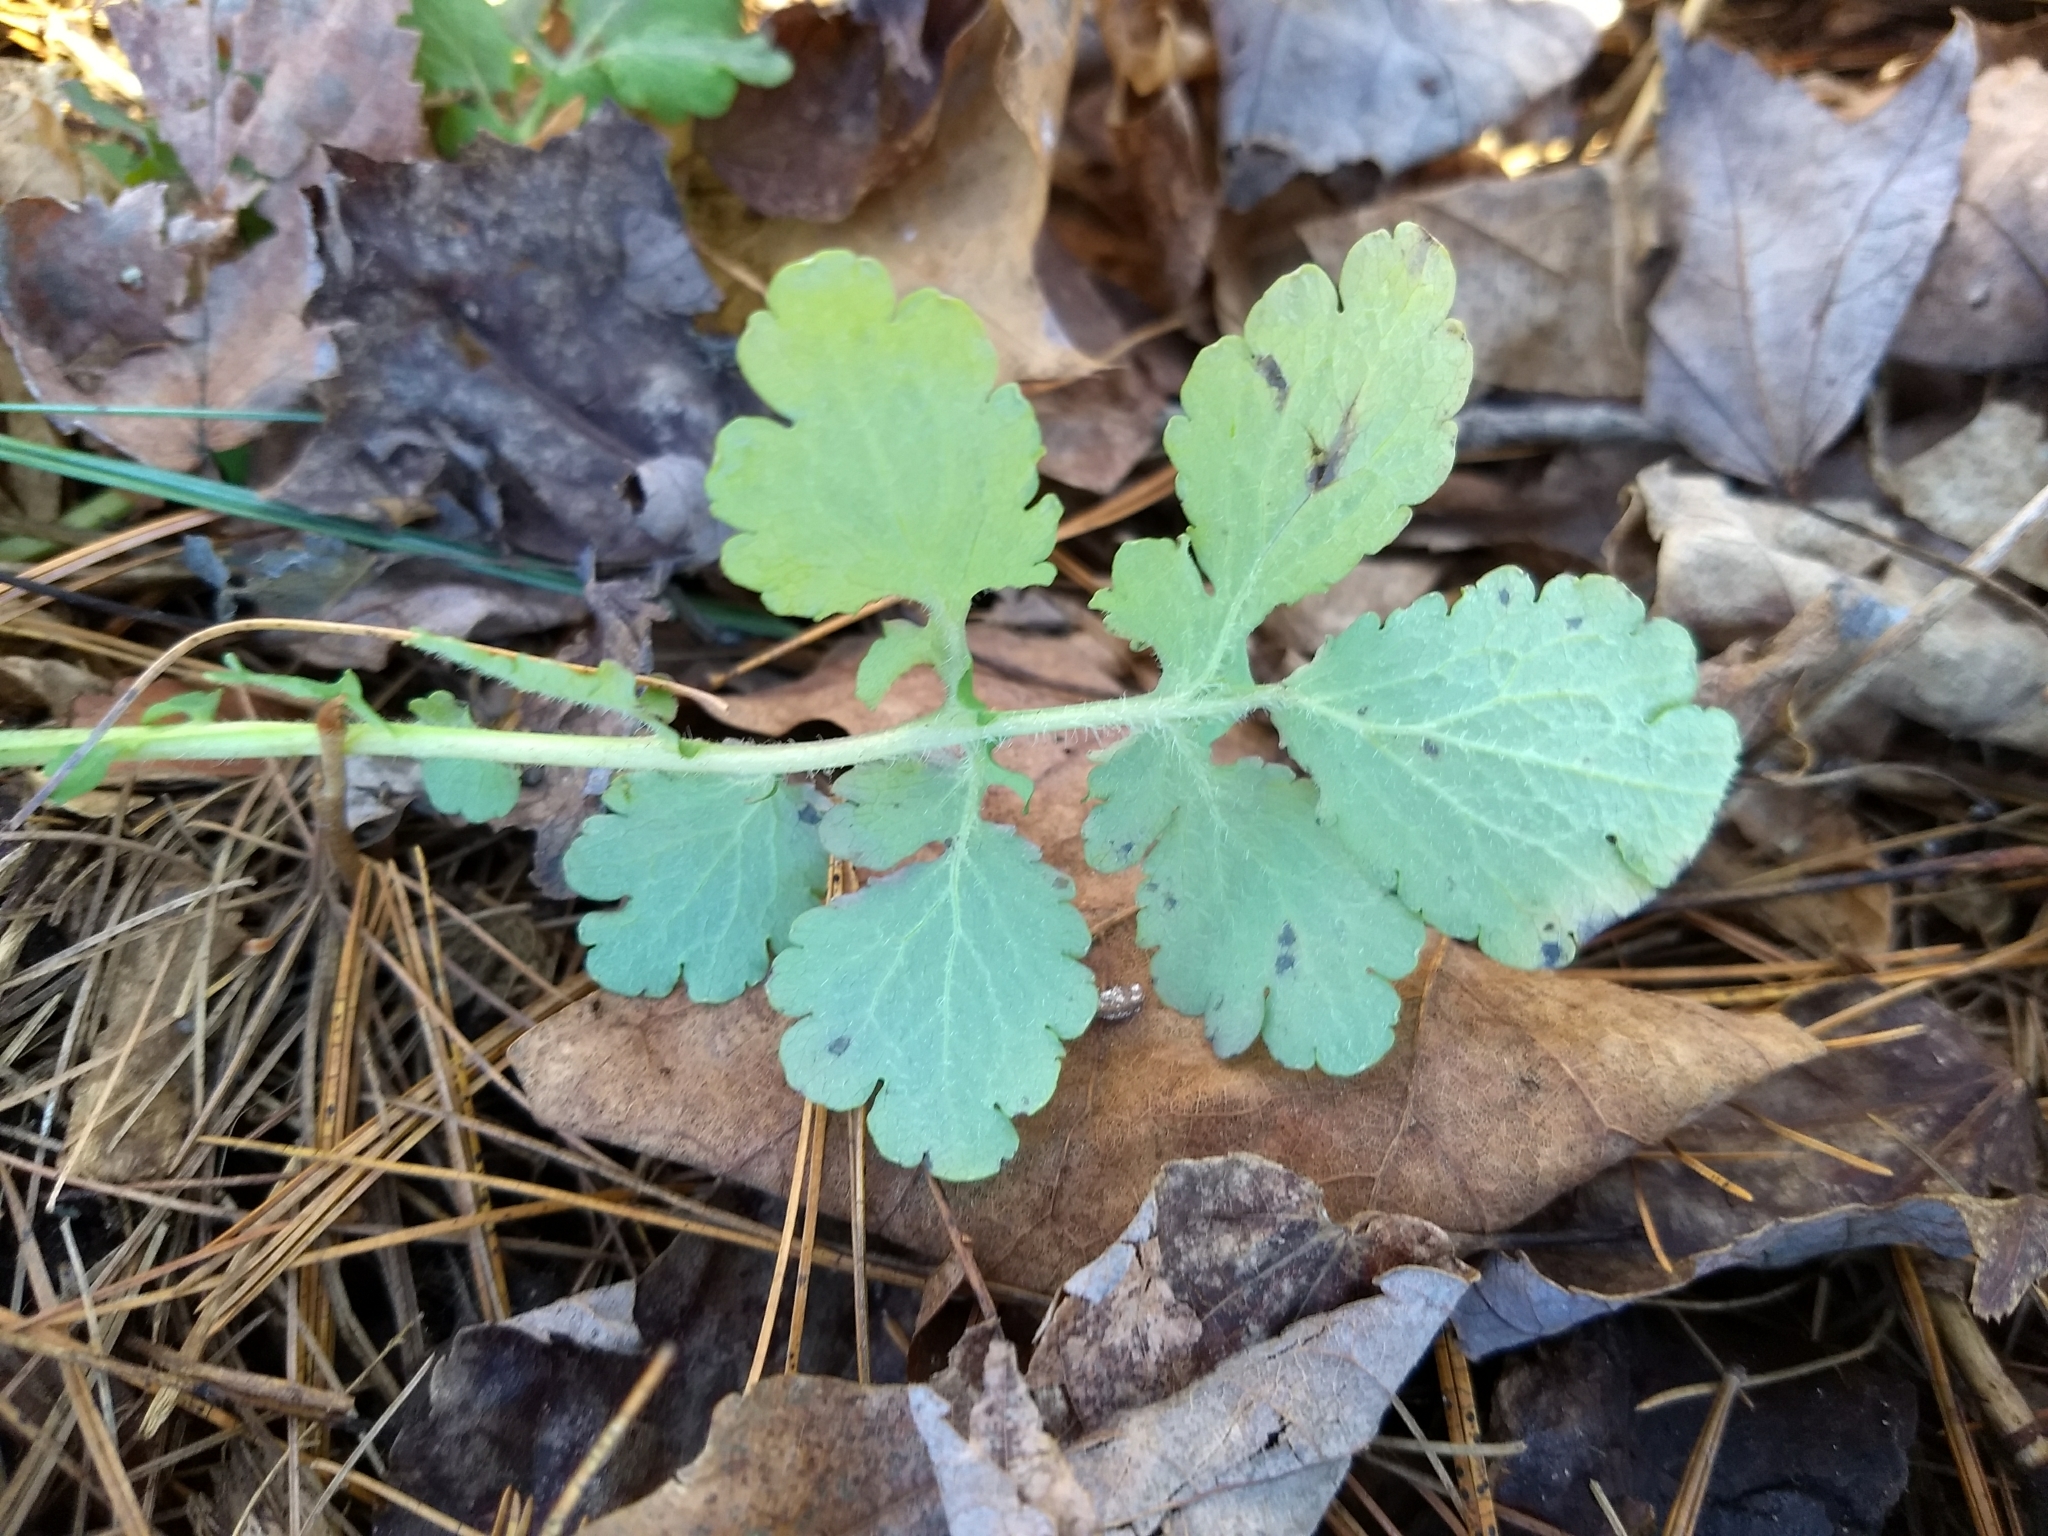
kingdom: Plantae
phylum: Tracheophyta
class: Magnoliopsida
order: Ranunculales
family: Papaveraceae
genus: Chelidonium
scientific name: Chelidonium majus
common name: Greater celandine
